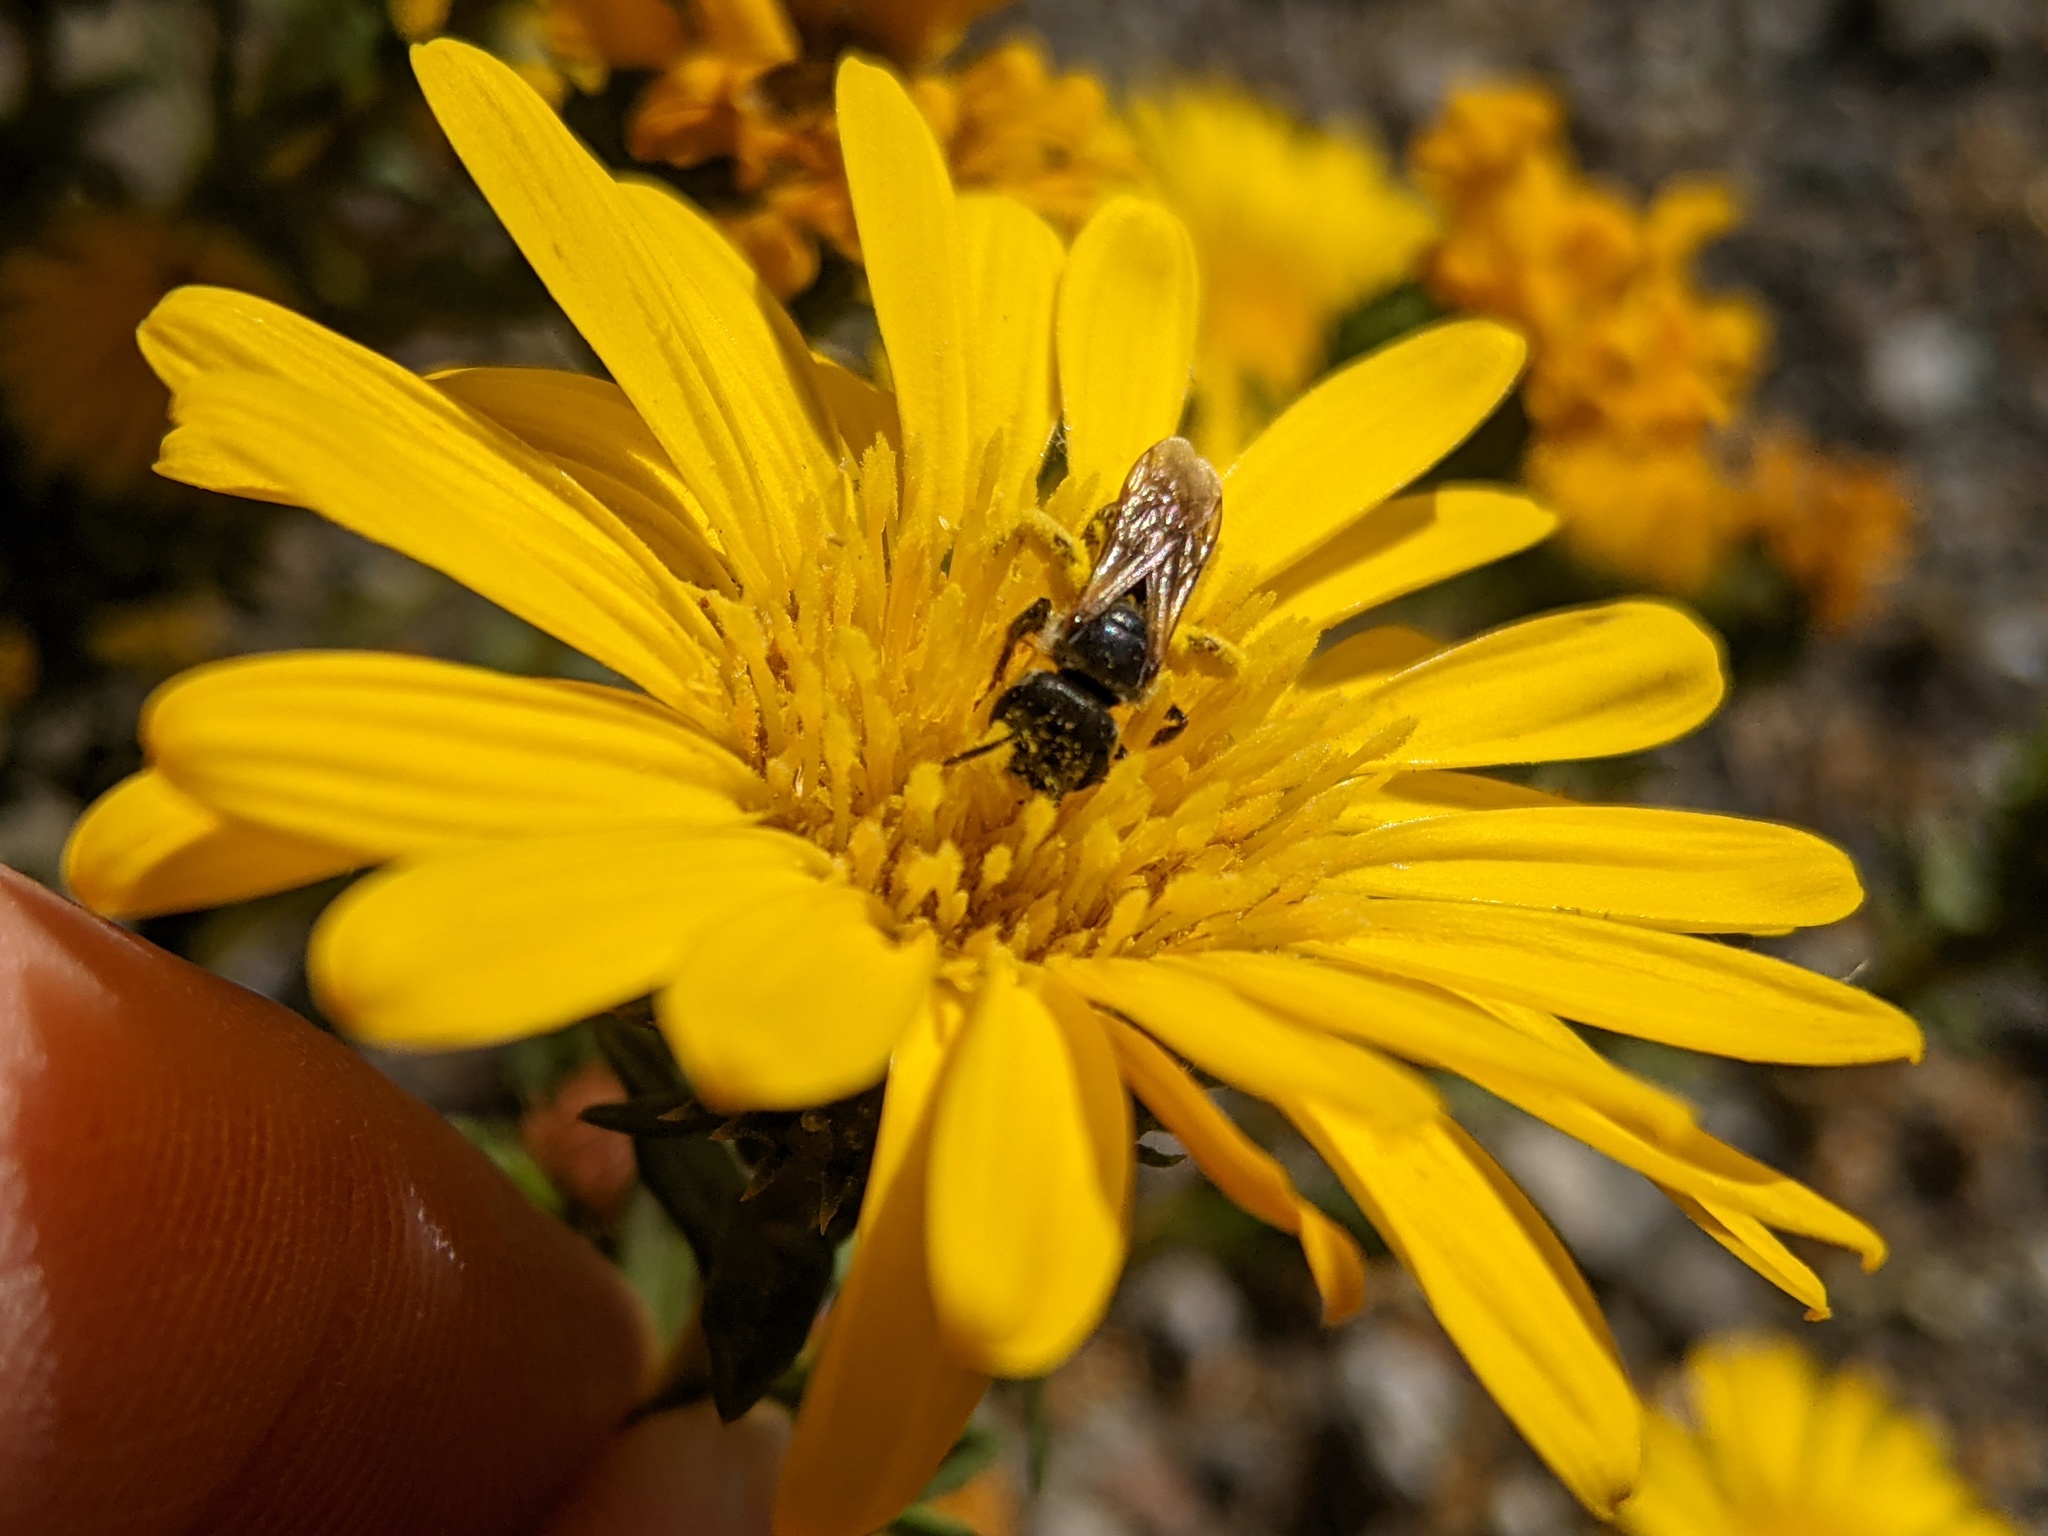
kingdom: Animalia
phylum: Arthropoda
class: Insecta
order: Hymenoptera
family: Halictidae
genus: Halictus
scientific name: Halictus ligatus
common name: Ligated furrow bee
